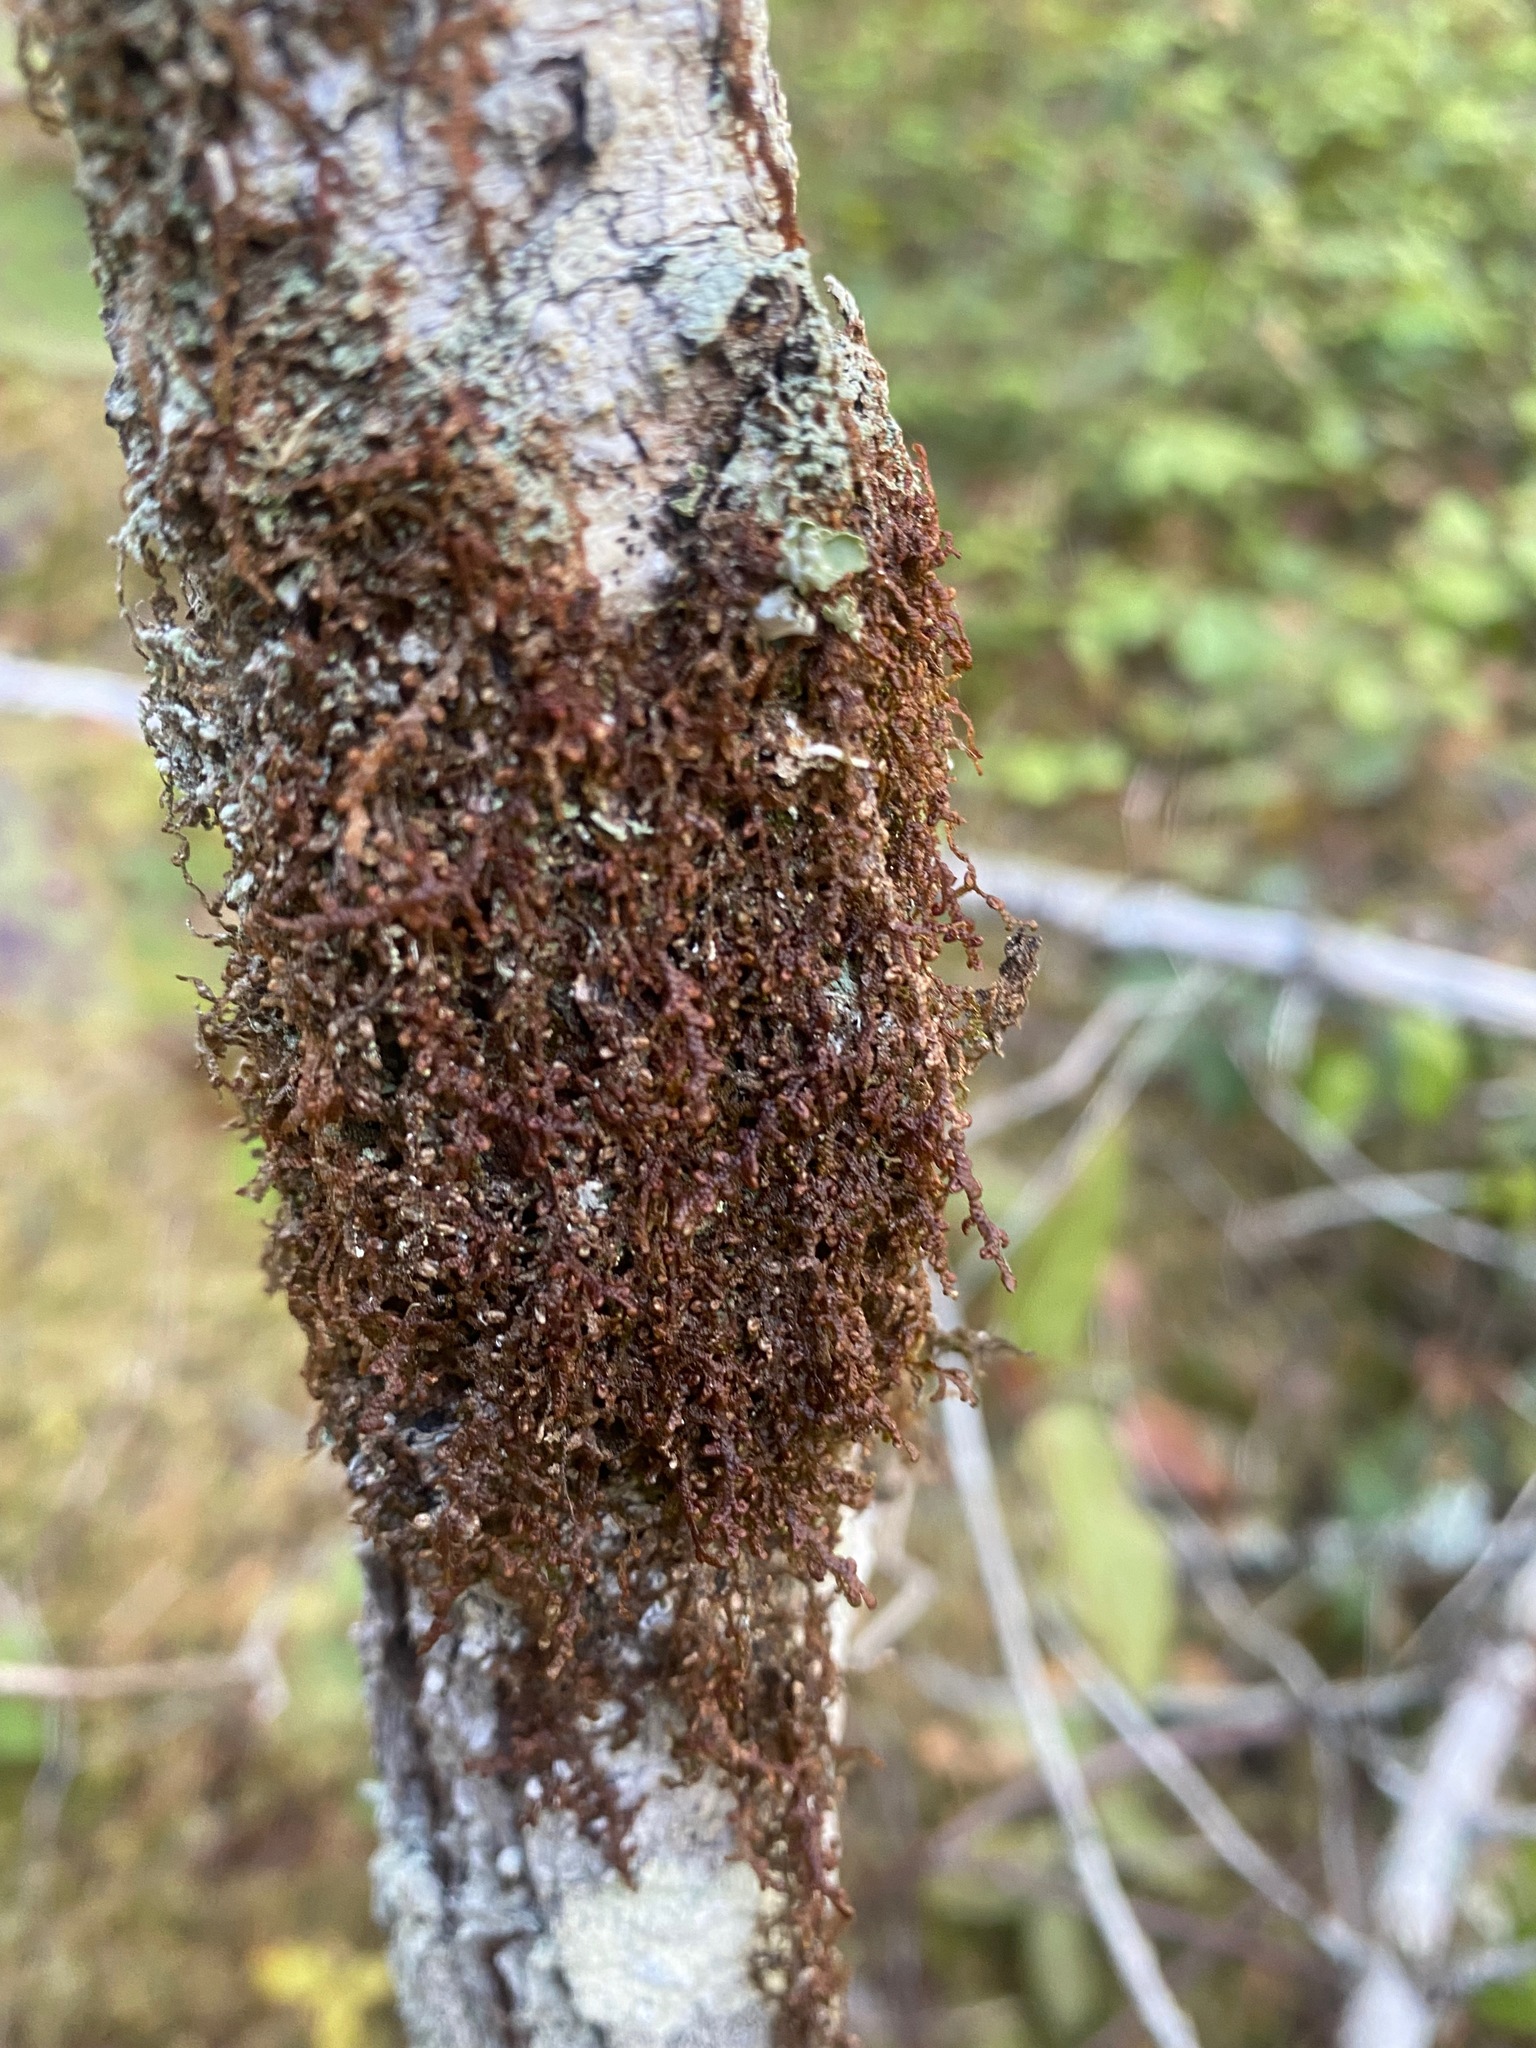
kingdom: Plantae
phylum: Marchantiophyta
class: Jungermanniopsida
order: Porellales
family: Frullaniaceae
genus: Frullania
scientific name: Frullania nisquallensis
